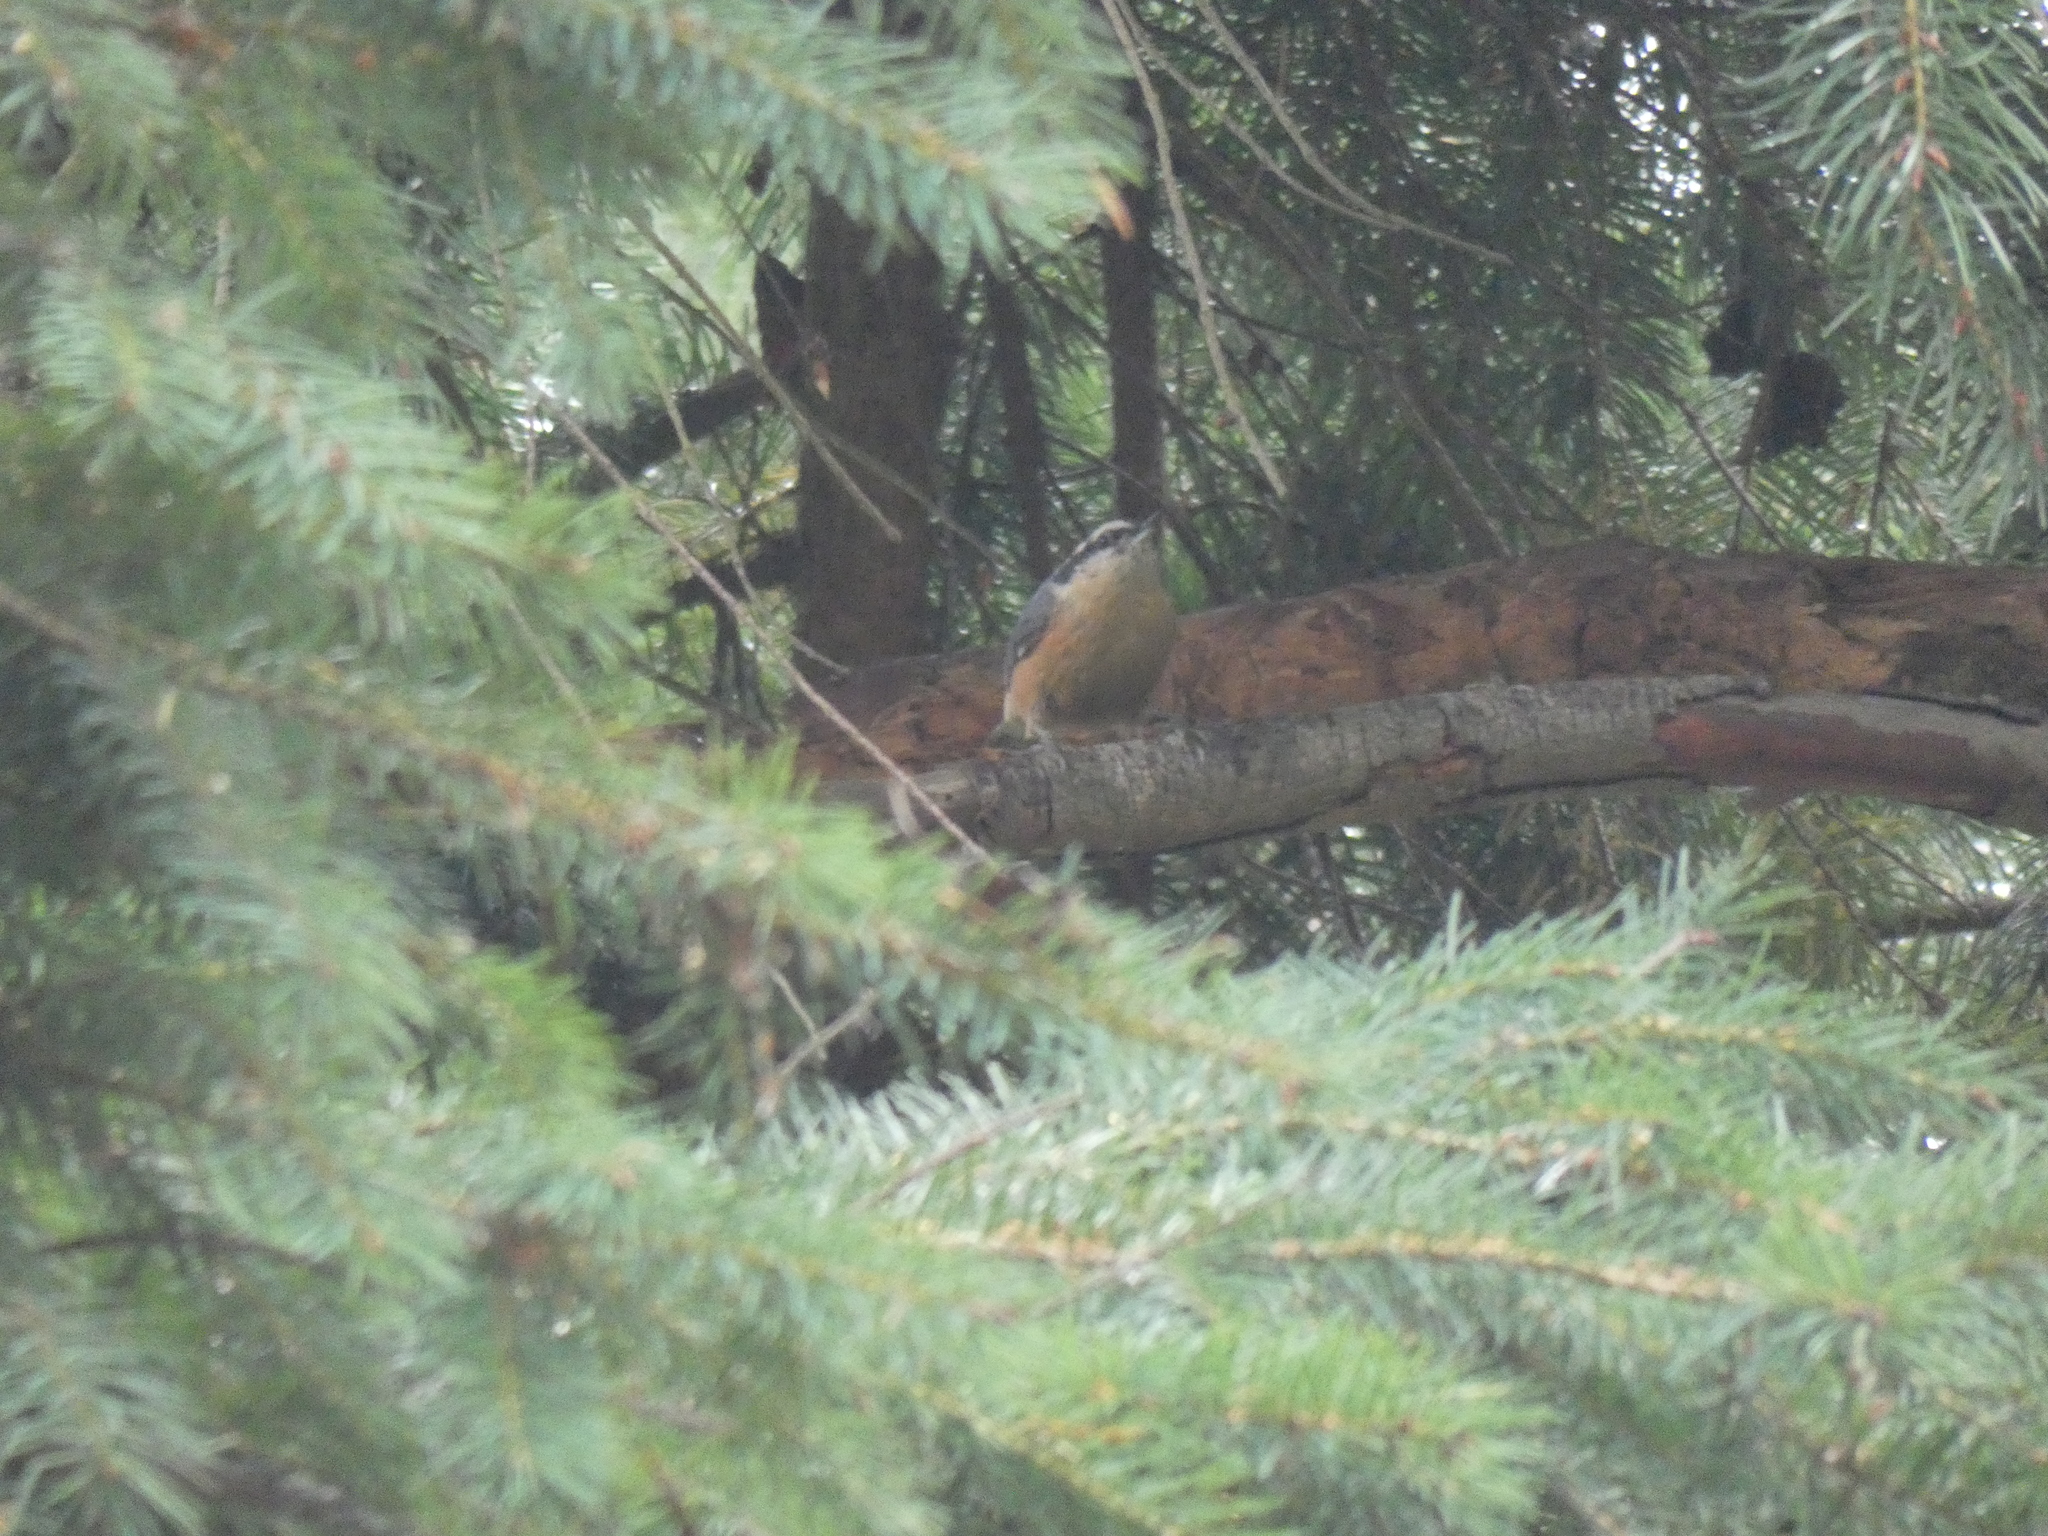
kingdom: Animalia
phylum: Chordata
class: Aves
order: Passeriformes
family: Sittidae
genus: Sitta
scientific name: Sitta canadensis
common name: Red-breasted nuthatch
